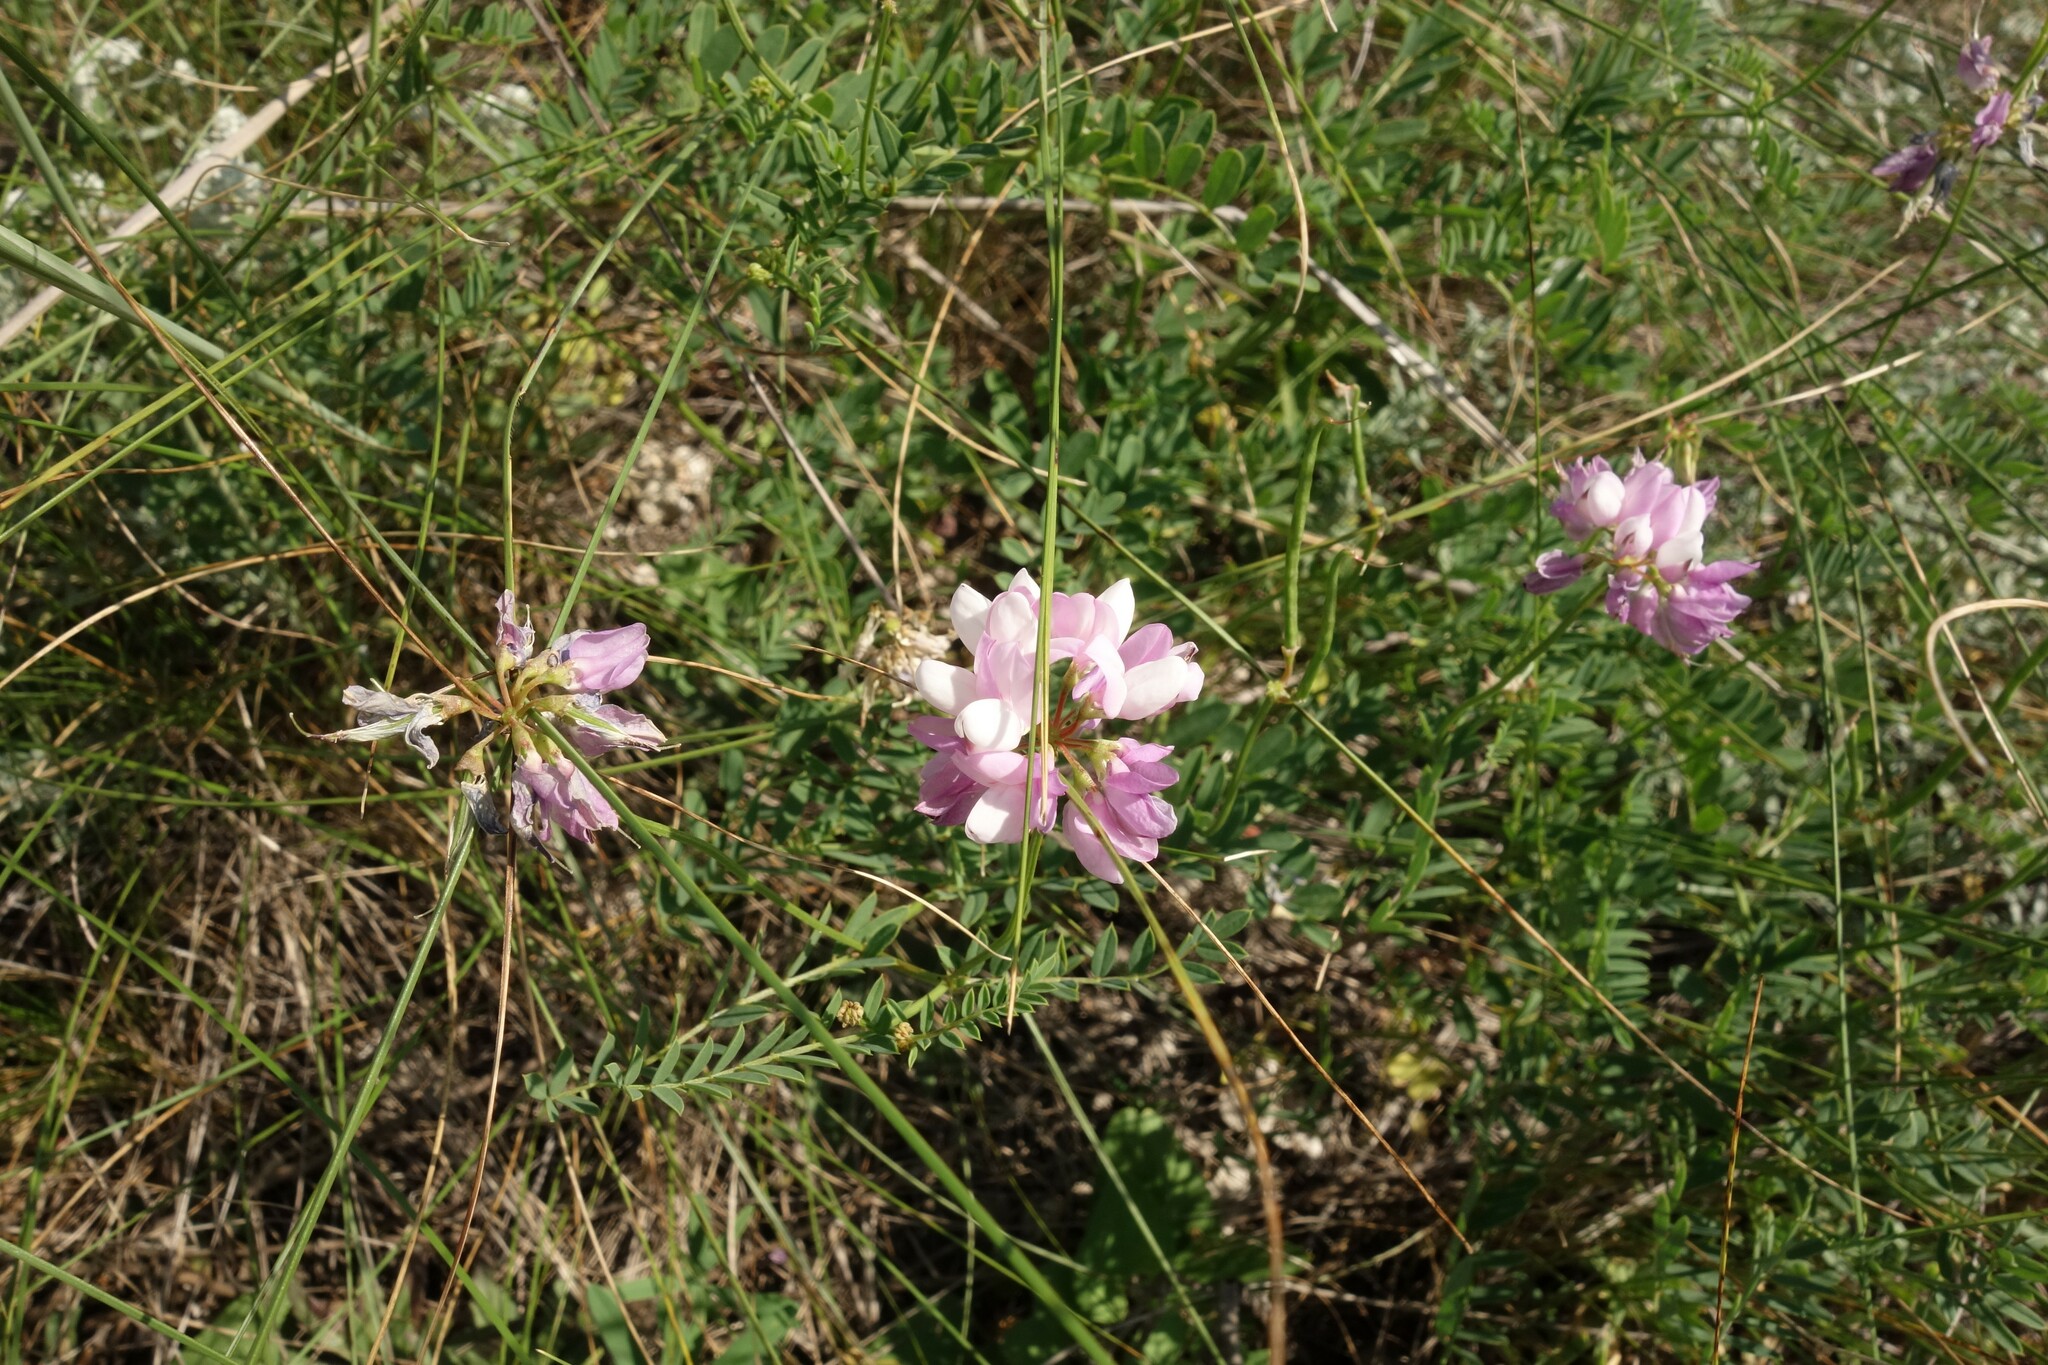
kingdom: Plantae
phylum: Tracheophyta
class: Magnoliopsida
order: Fabales
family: Fabaceae
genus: Coronilla
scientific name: Coronilla varia
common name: Crownvetch
